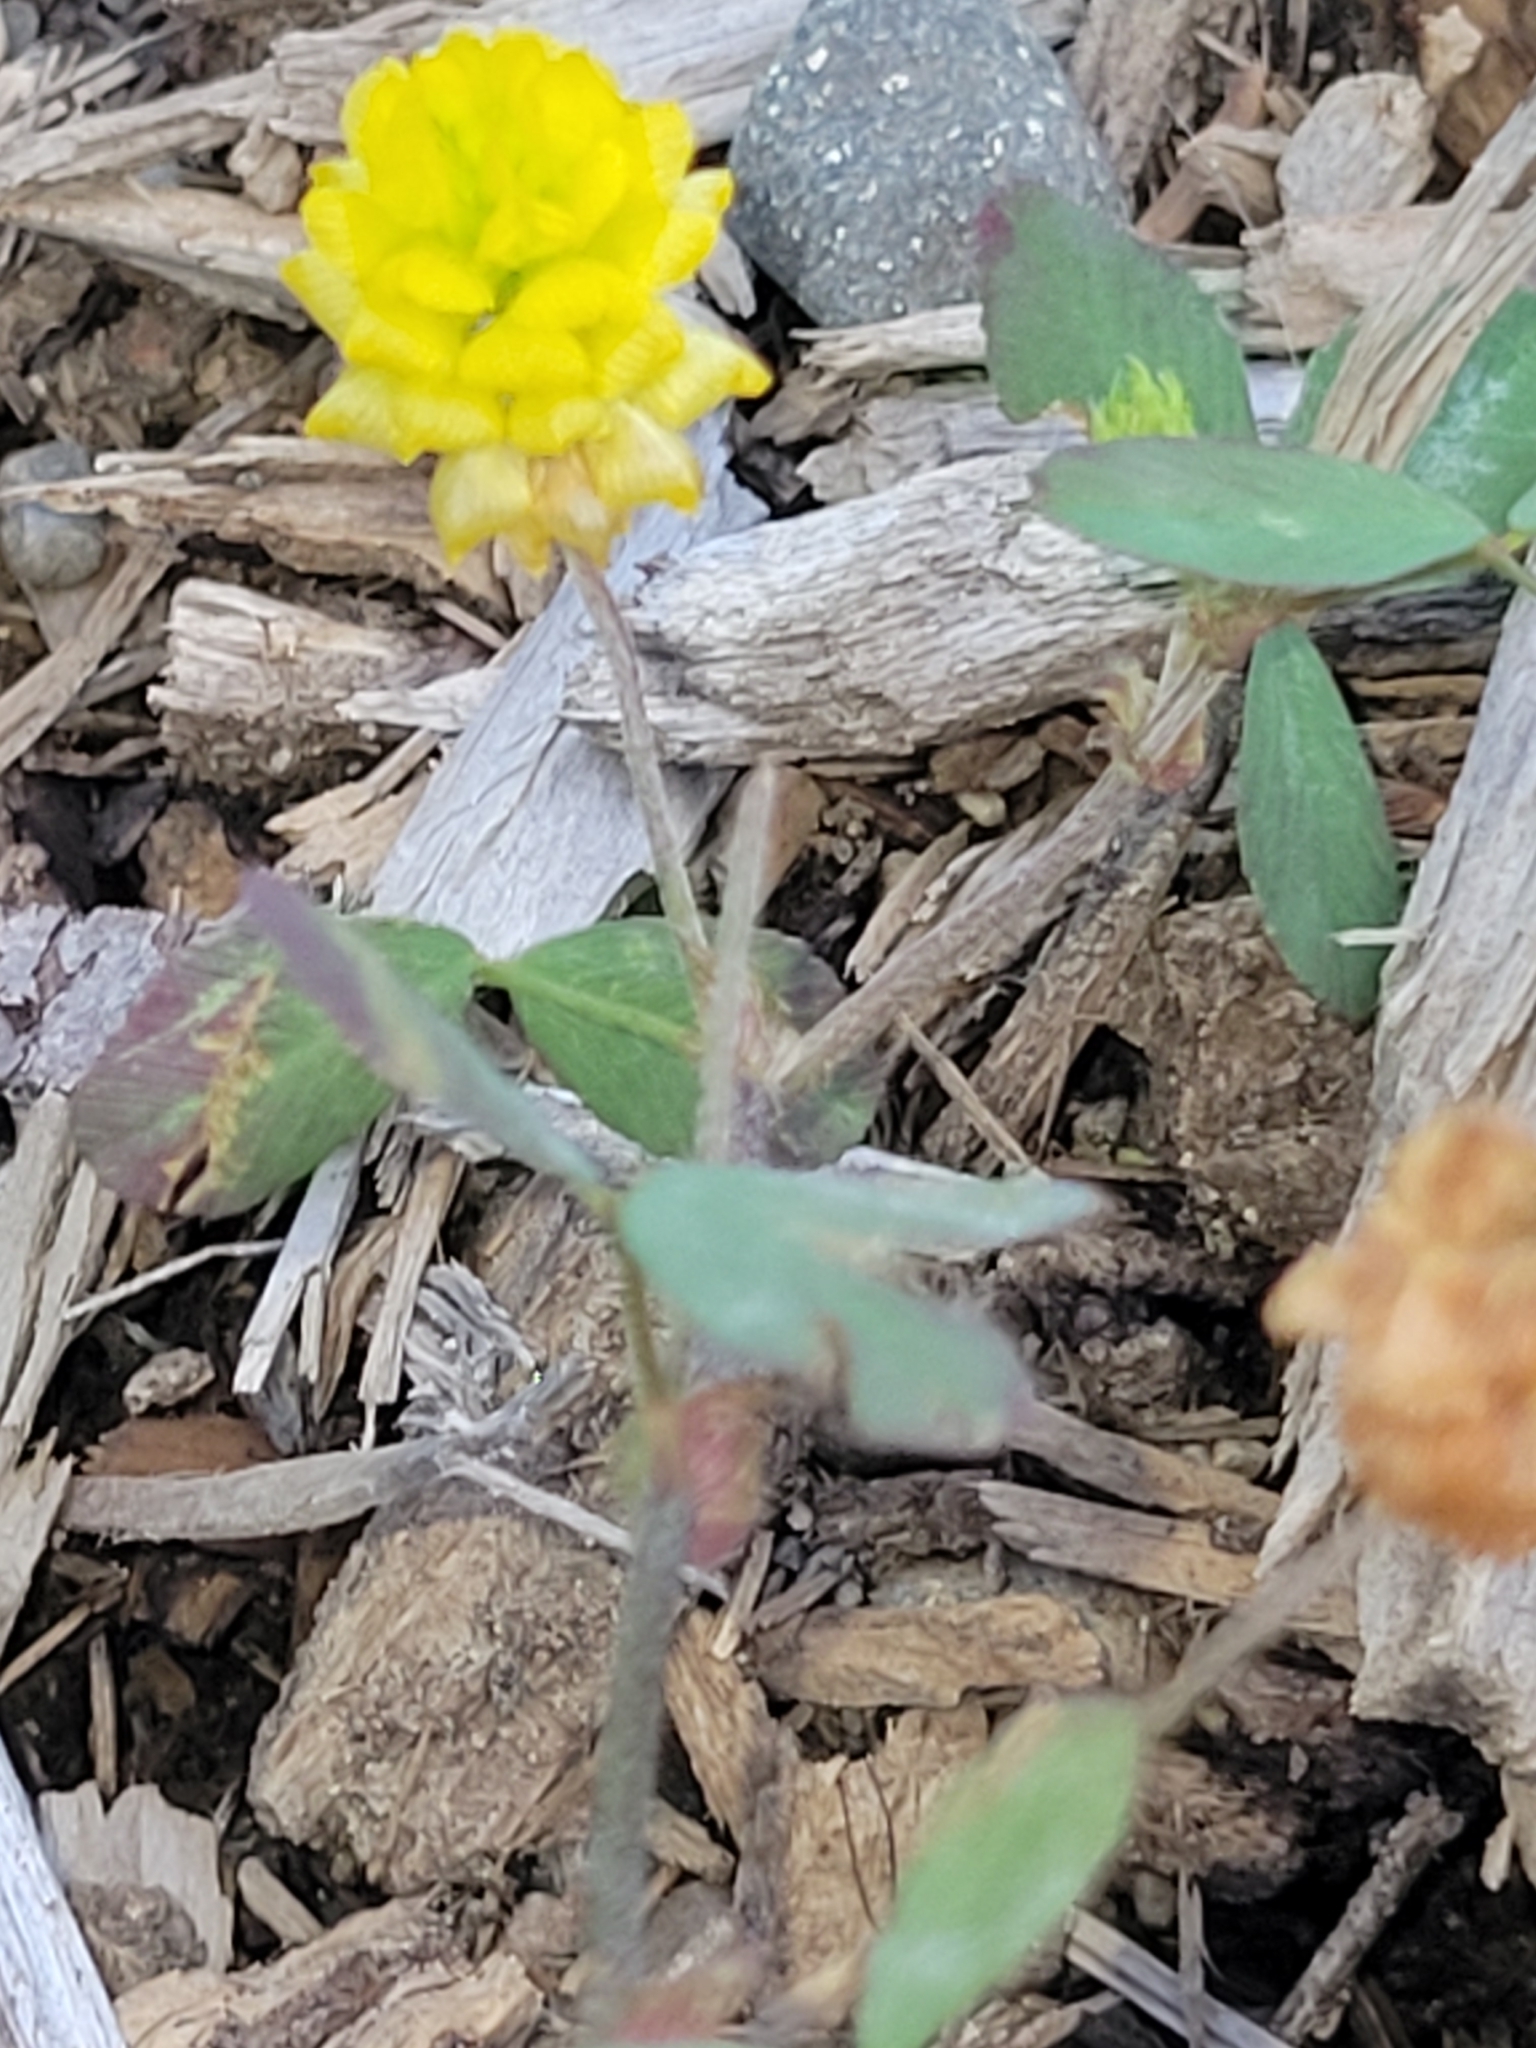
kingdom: Plantae
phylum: Tracheophyta
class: Magnoliopsida
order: Fabales
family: Fabaceae
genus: Trifolium
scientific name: Trifolium campestre
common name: Field clover
